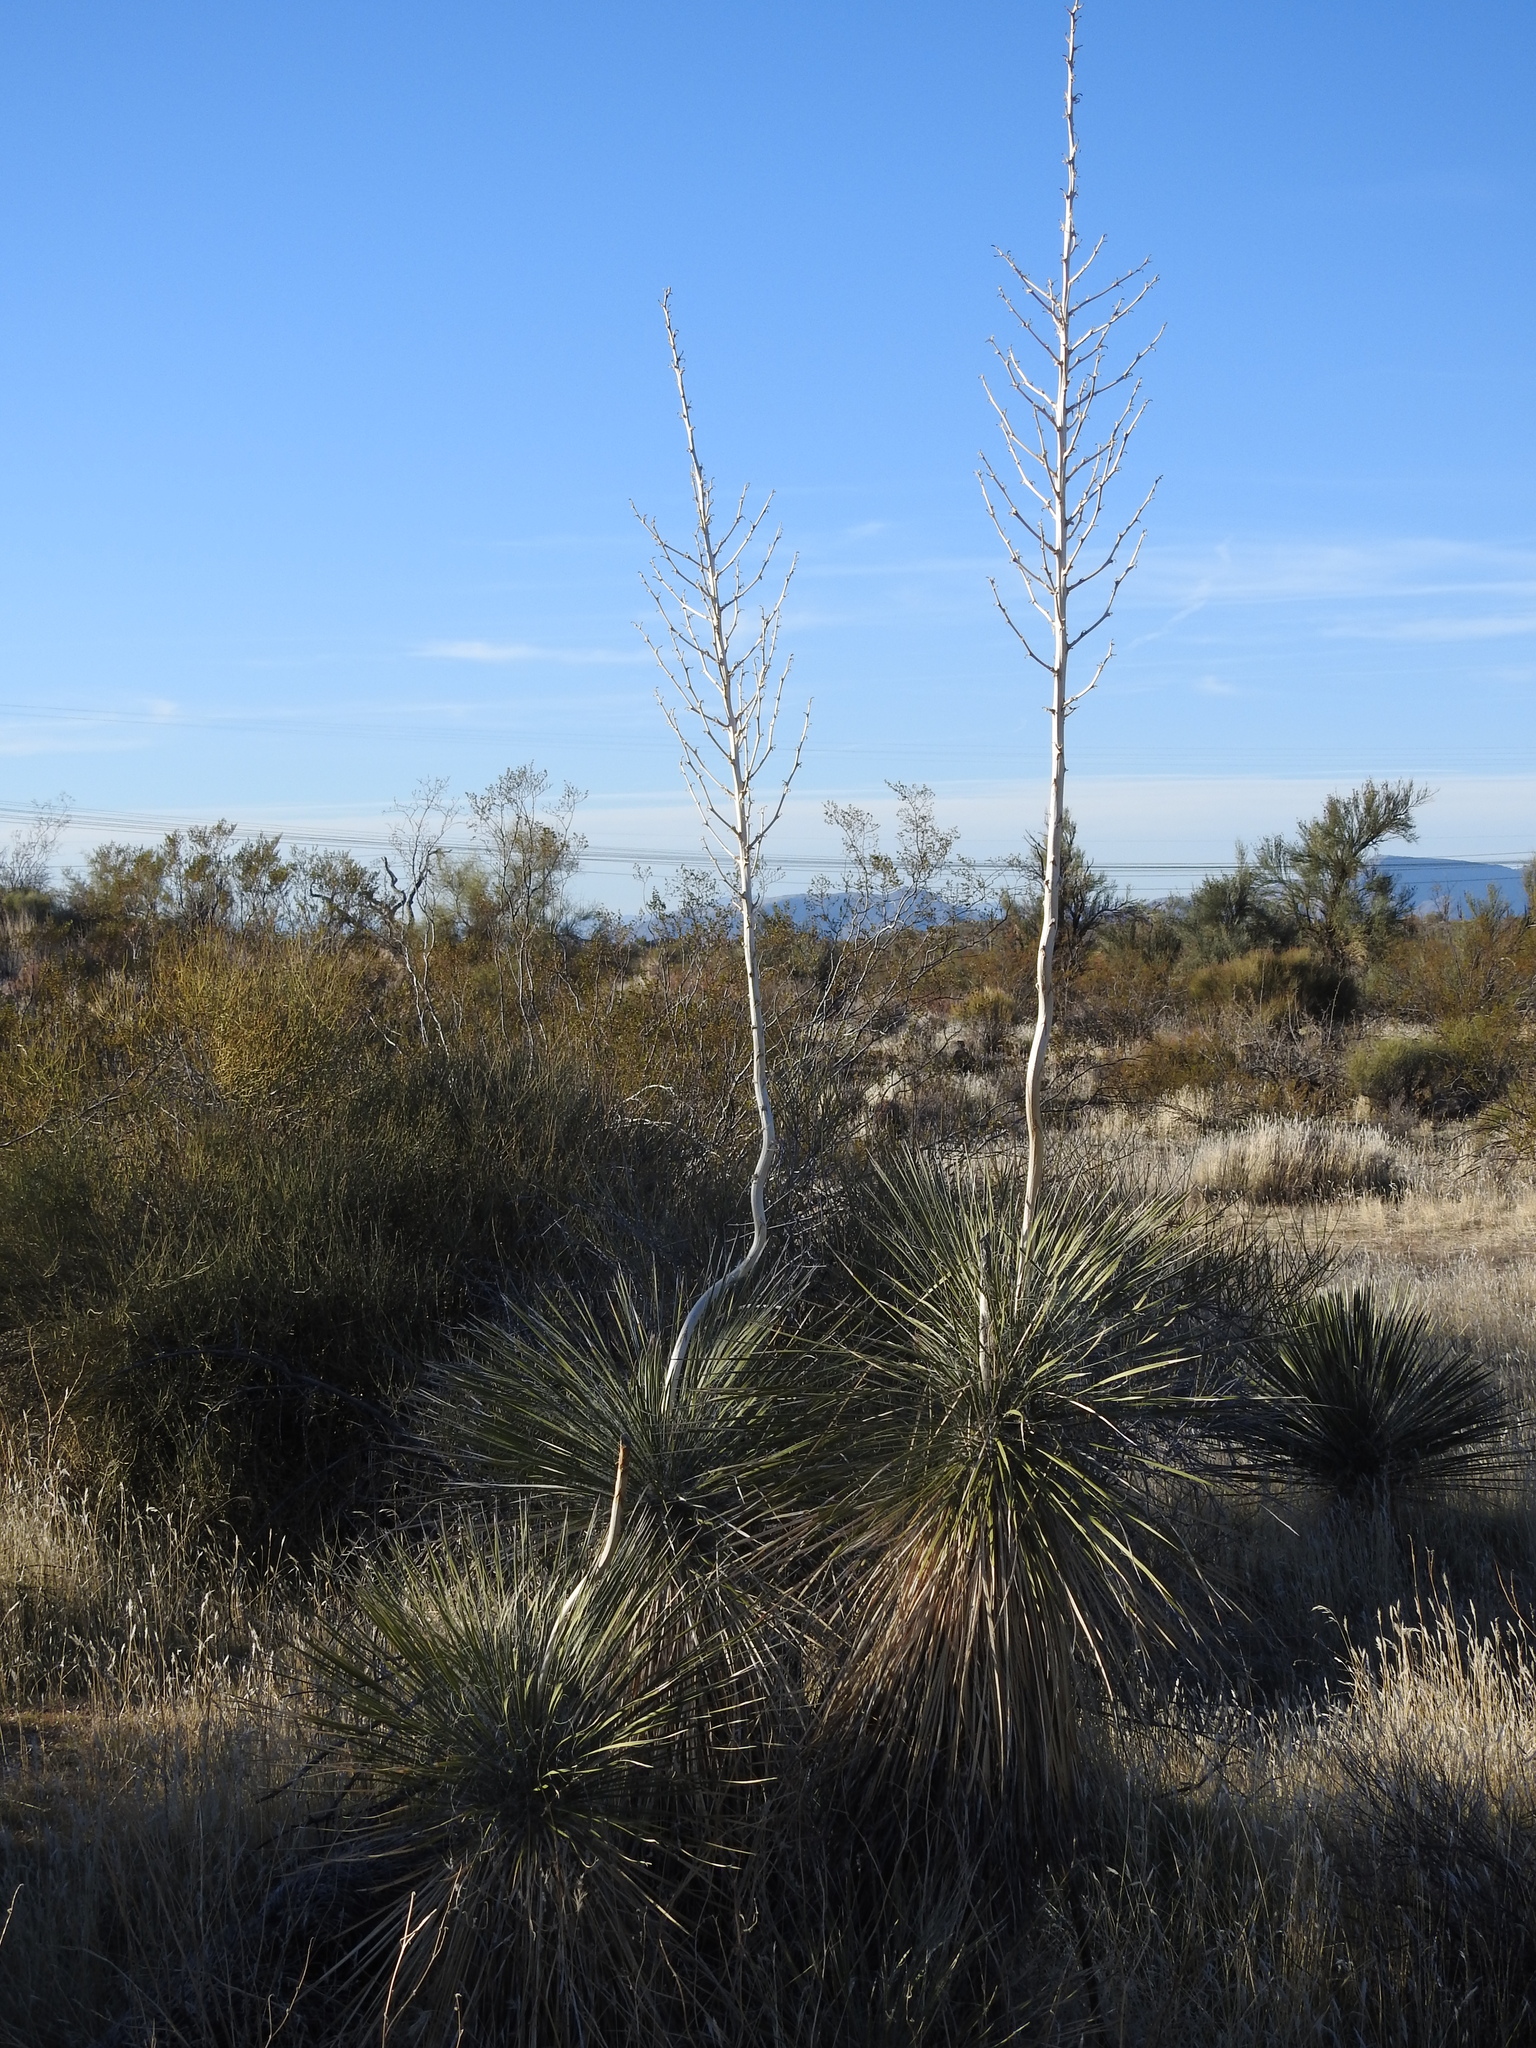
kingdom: Plantae
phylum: Tracheophyta
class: Liliopsida
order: Asparagales
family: Asparagaceae
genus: Yucca
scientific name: Yucca elata
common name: Palmella
